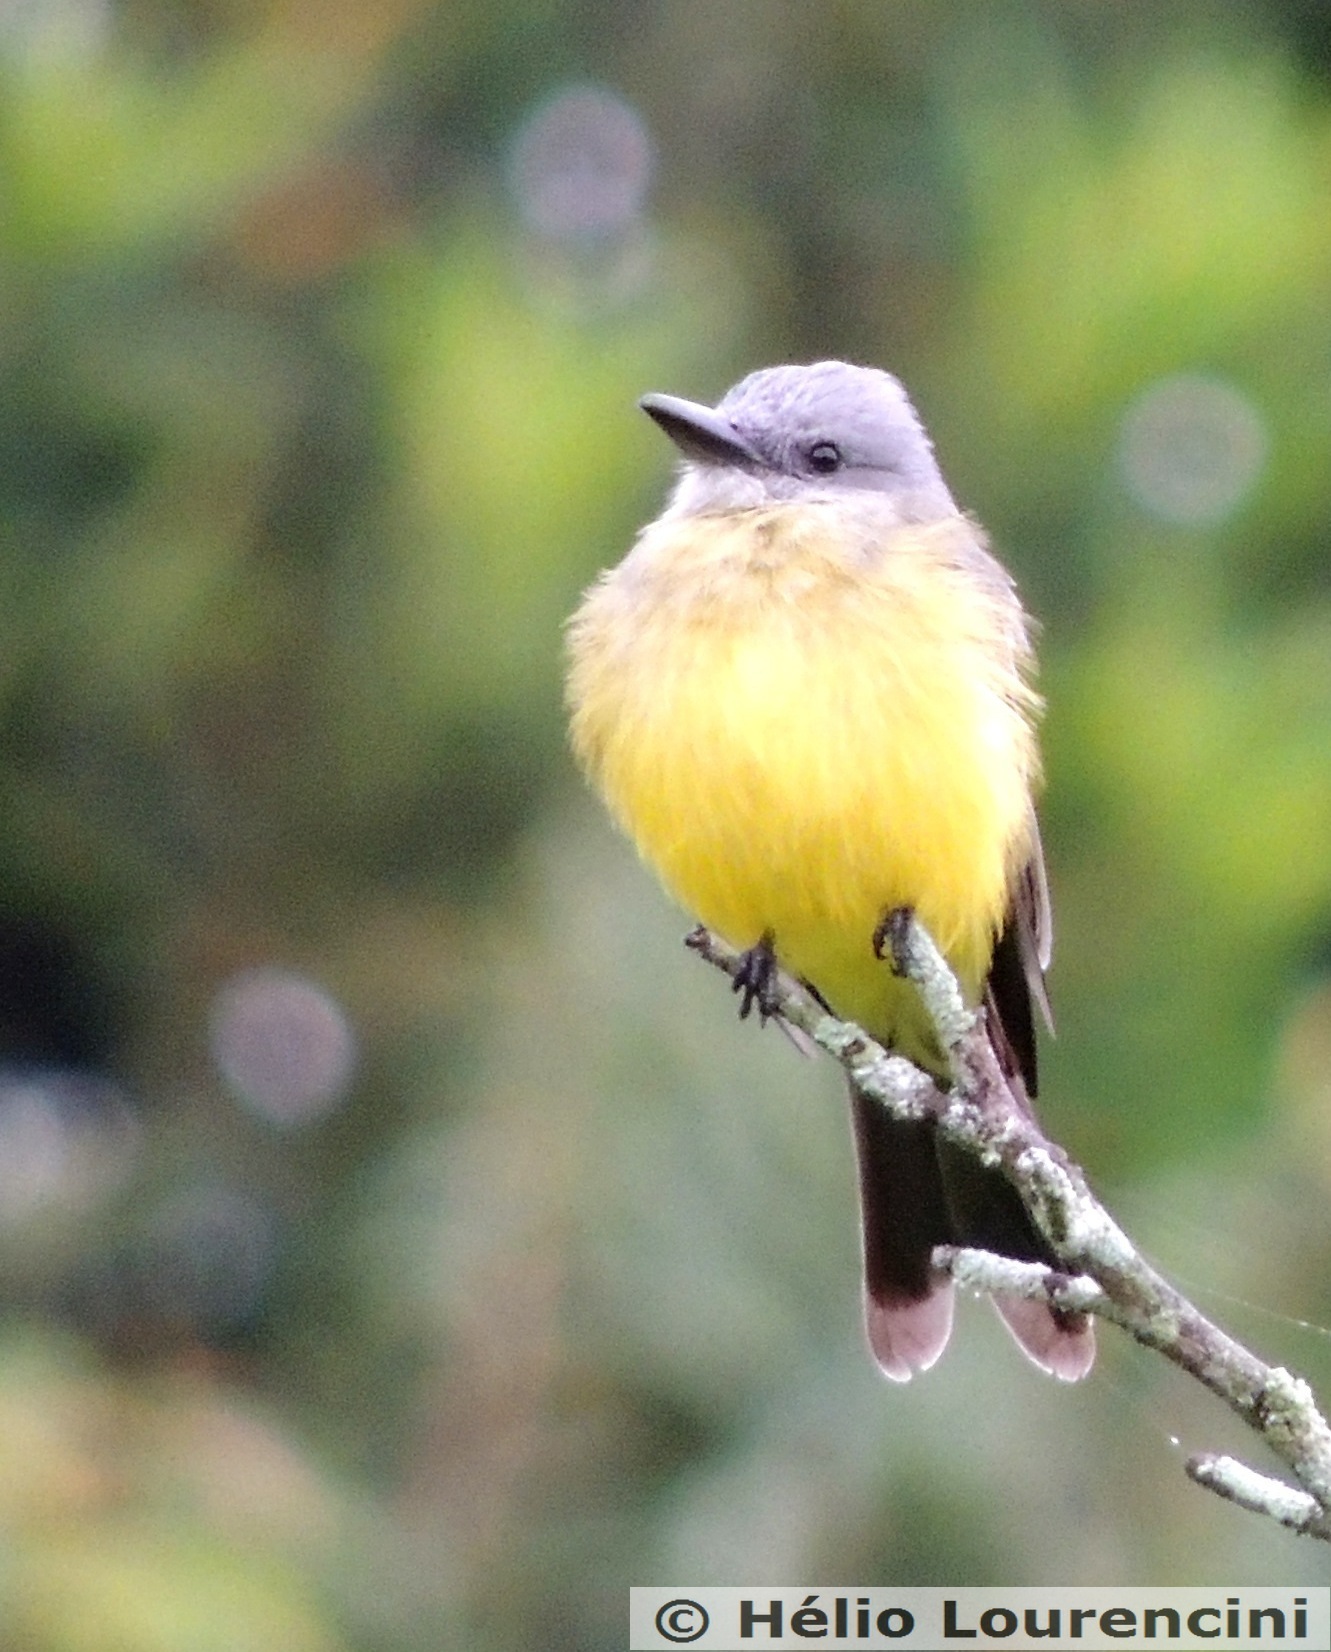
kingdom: Animalia
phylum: Chordata
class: Aves
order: Passeriformes
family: Tyrannidae
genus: Tyrannus
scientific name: Tyrannus melancholicus
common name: Tropical kingbird
